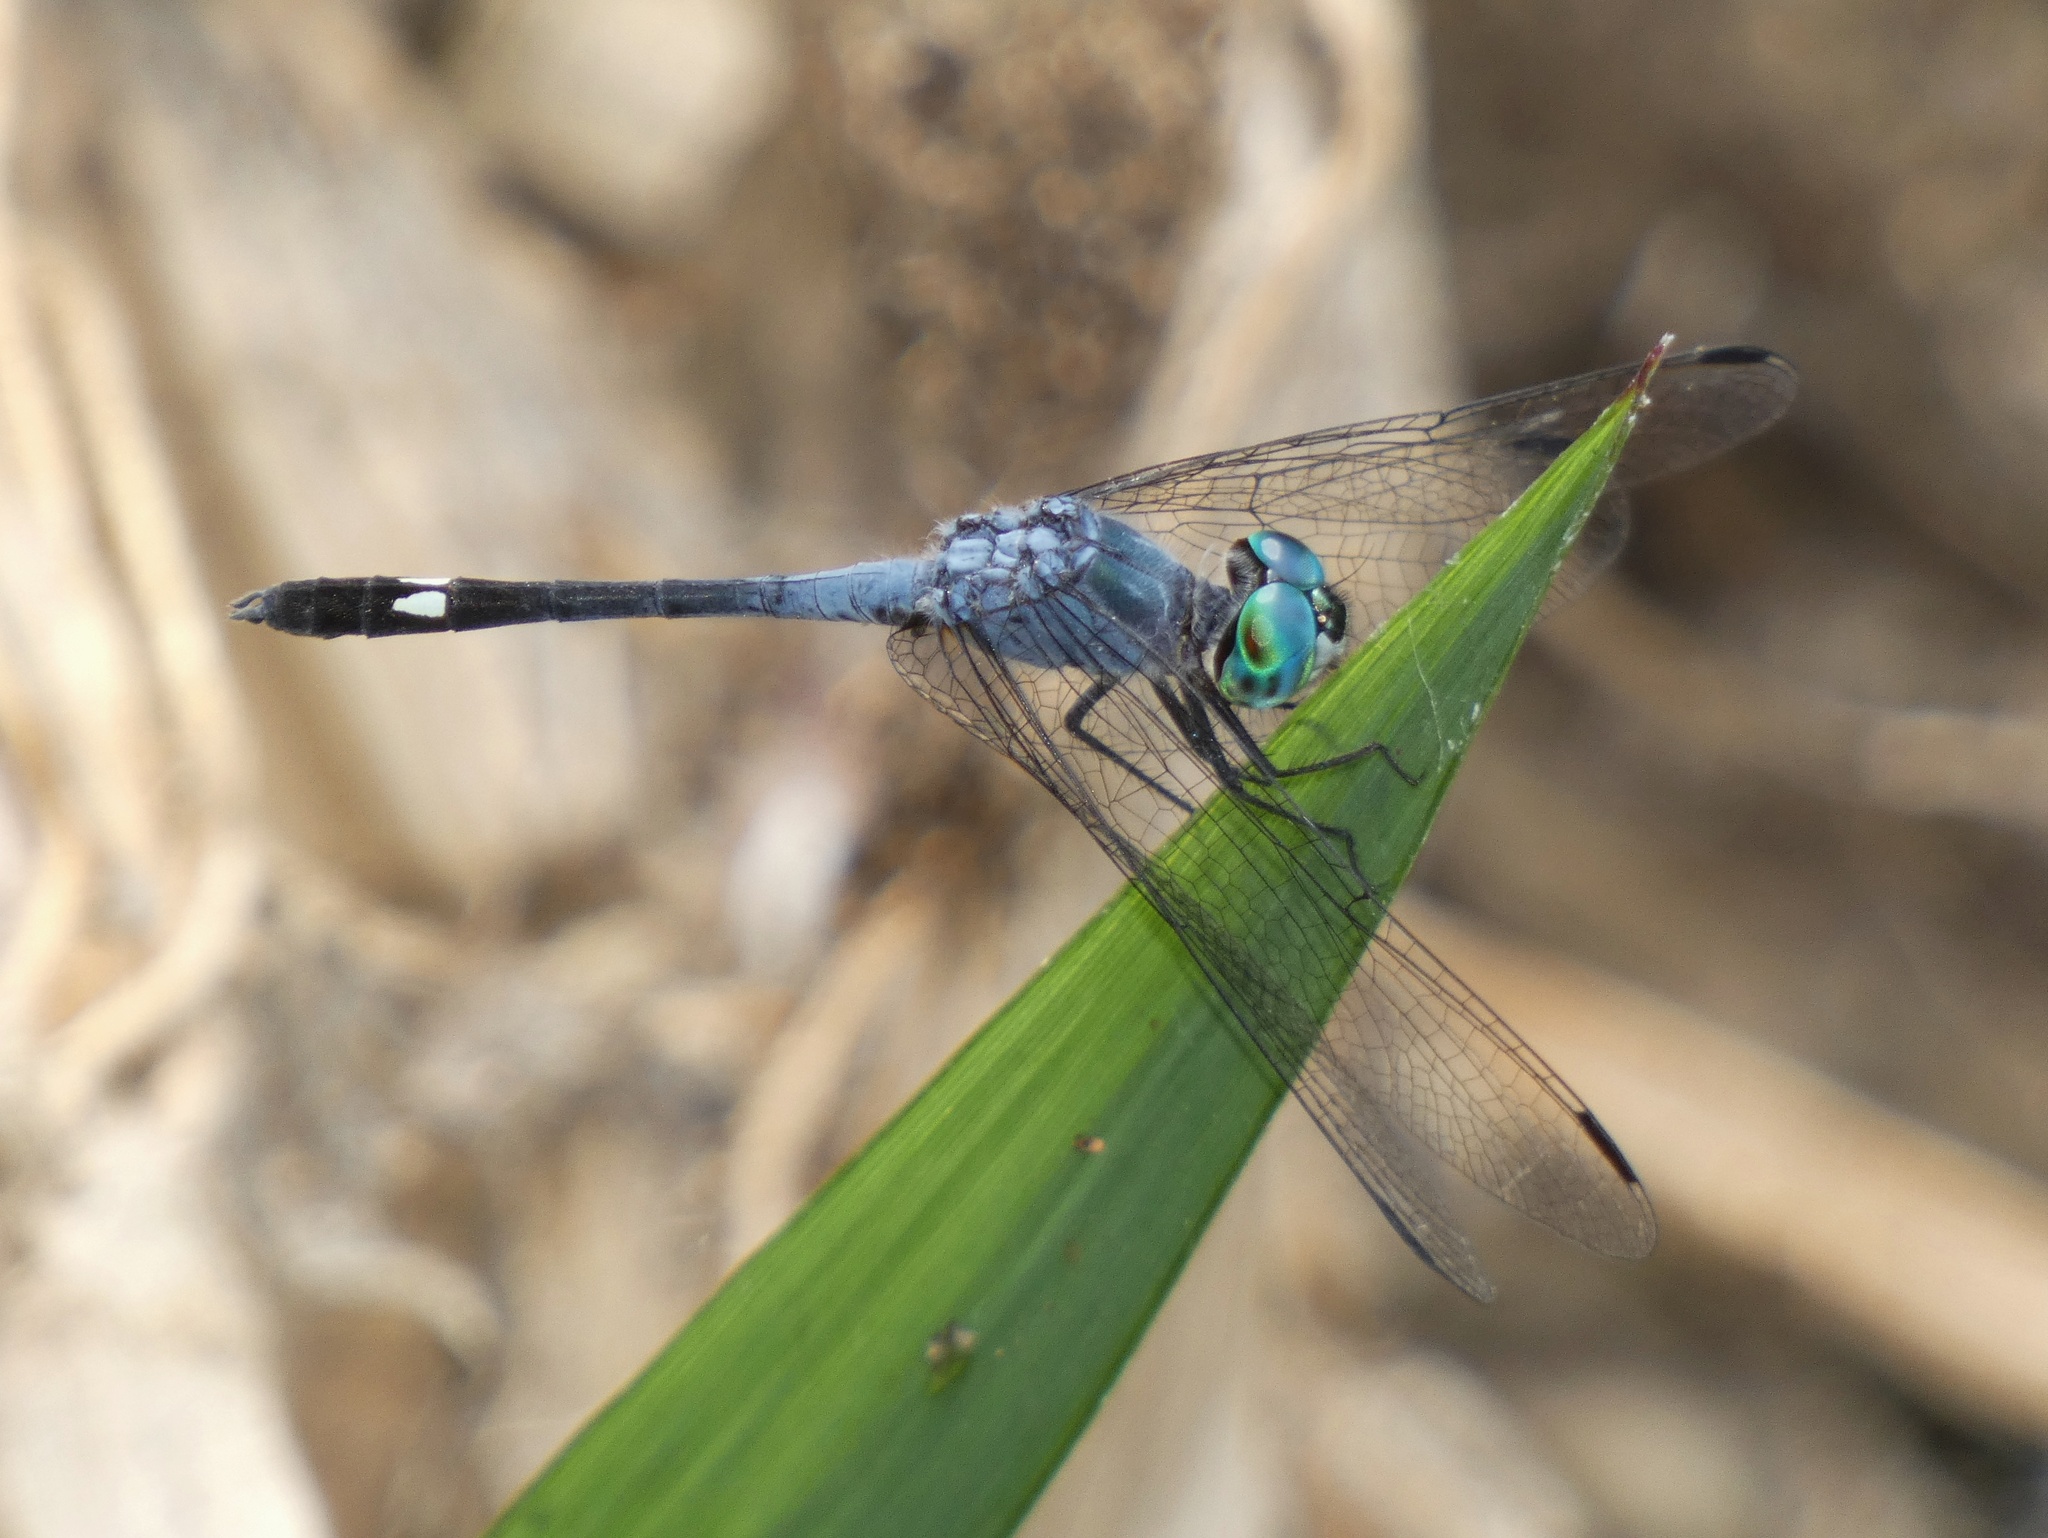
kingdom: Animalia
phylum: Arthropoda
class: Insecta
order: Odonata
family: Libellulidae
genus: Micrathyria
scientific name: Micrathyria aequalis
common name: Spot-tailed dasher
